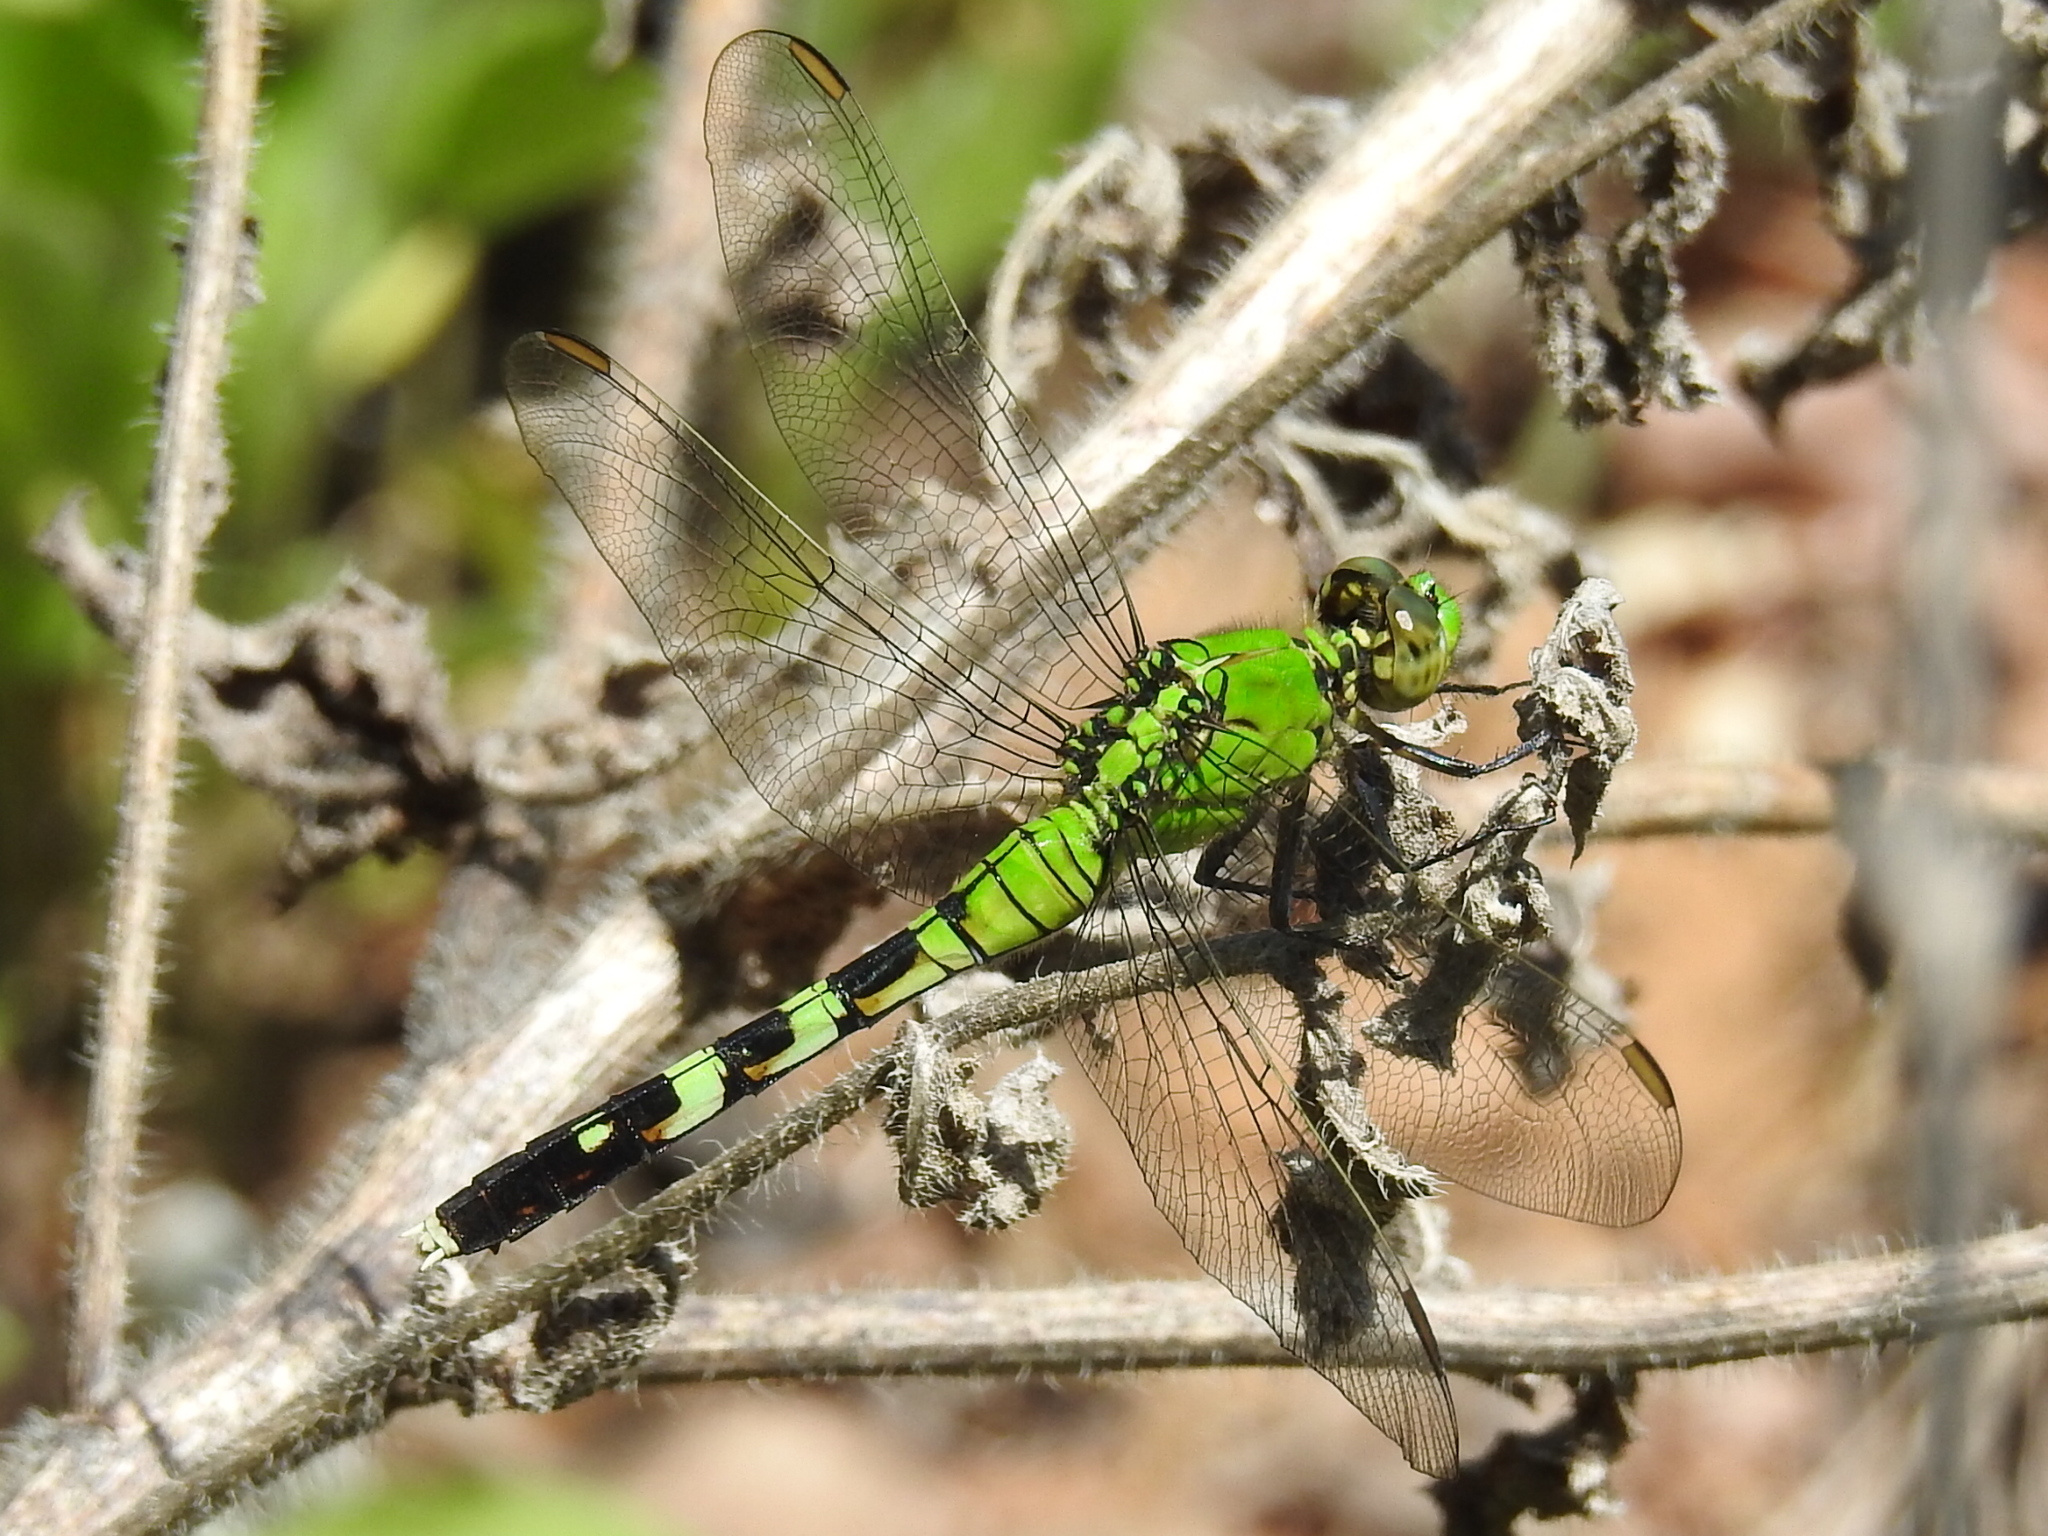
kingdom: Animalia
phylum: Arthropoda
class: Insecta
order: Odonata
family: Libellulidae
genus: Erythemis
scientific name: Erythemis simplicicollis
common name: Eastern pondhawk
